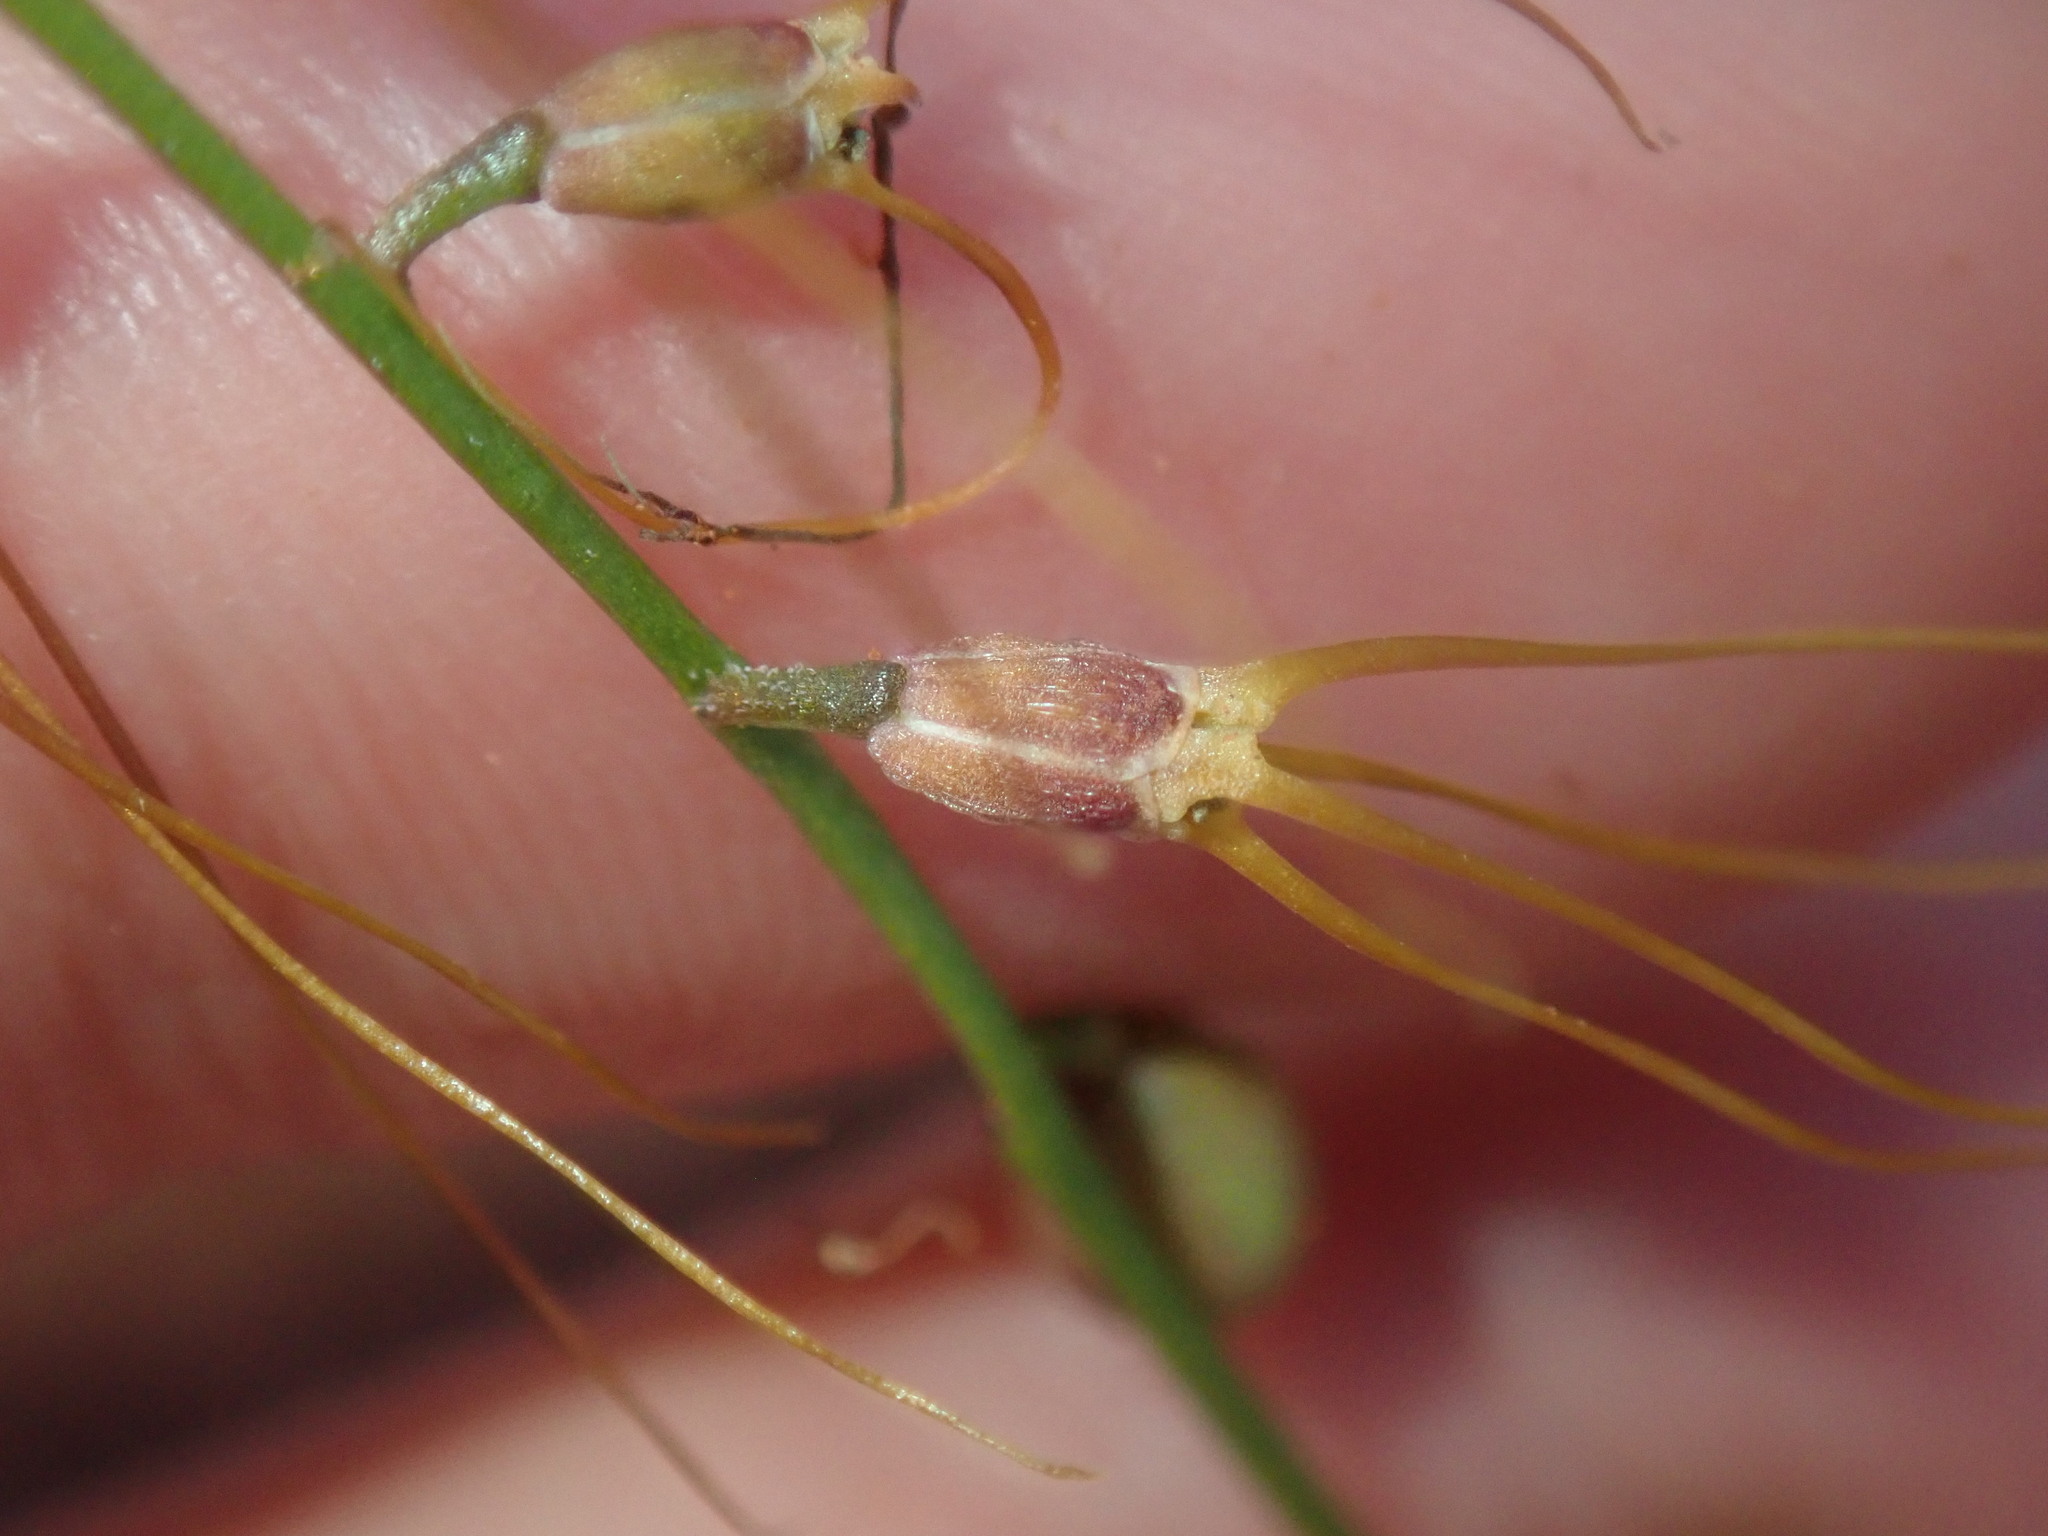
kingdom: Plantae
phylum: Tracheophyta
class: Magnoliopsida
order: Brassicales
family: Brassicaceae
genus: Stenopetalum
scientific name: Stenopetalum filifolium
